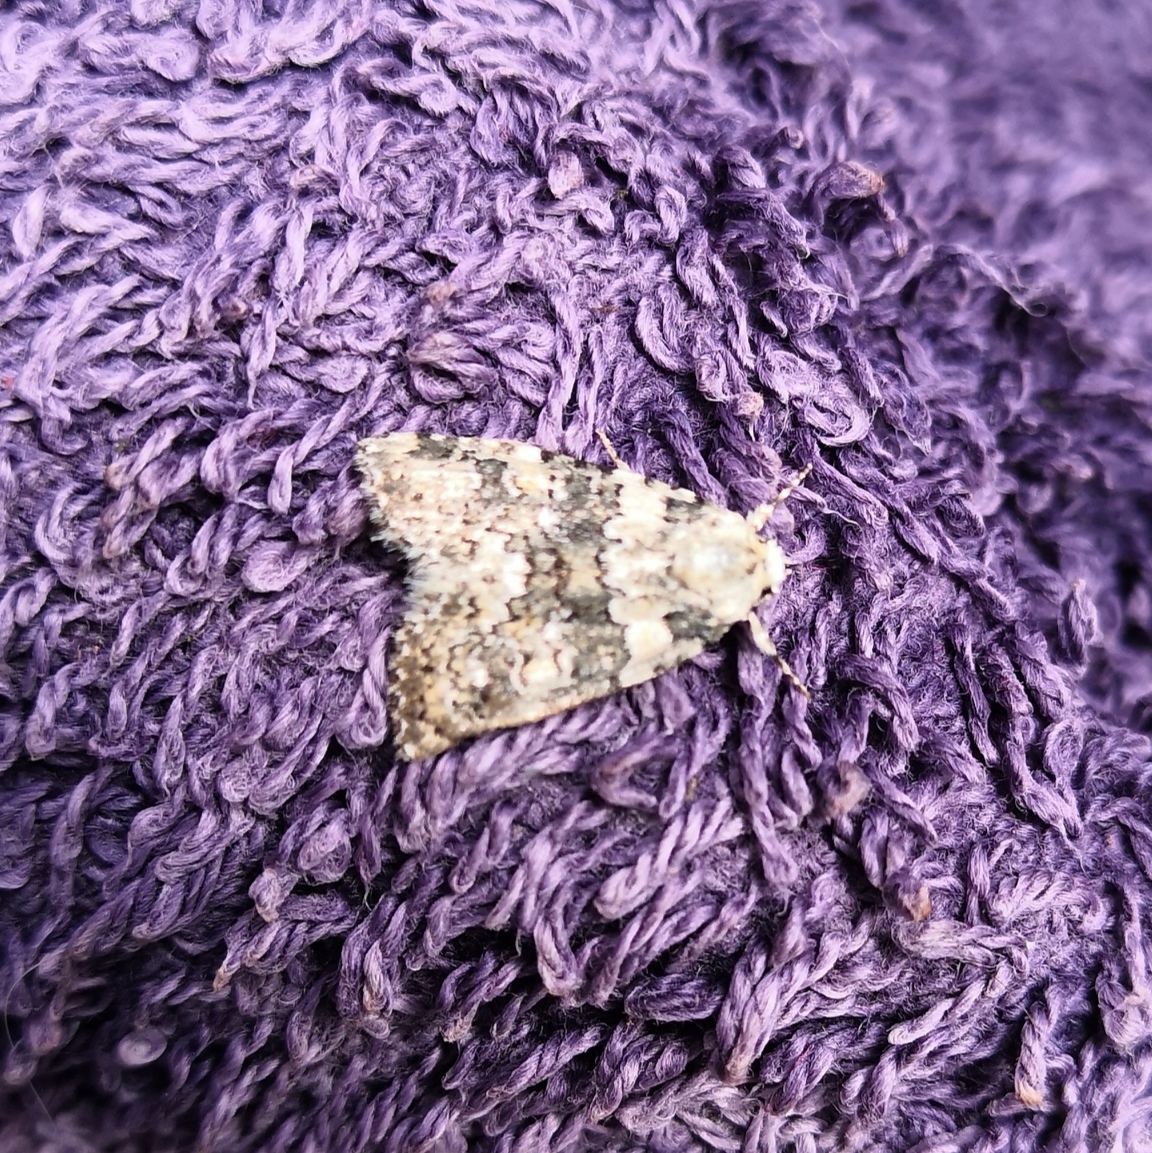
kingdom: Animalia
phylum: Arthropoda
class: Insecta
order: Lepidoptera
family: Noctuidae
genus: Bryophila
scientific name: Bryophila domestica
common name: Marbled beauty
